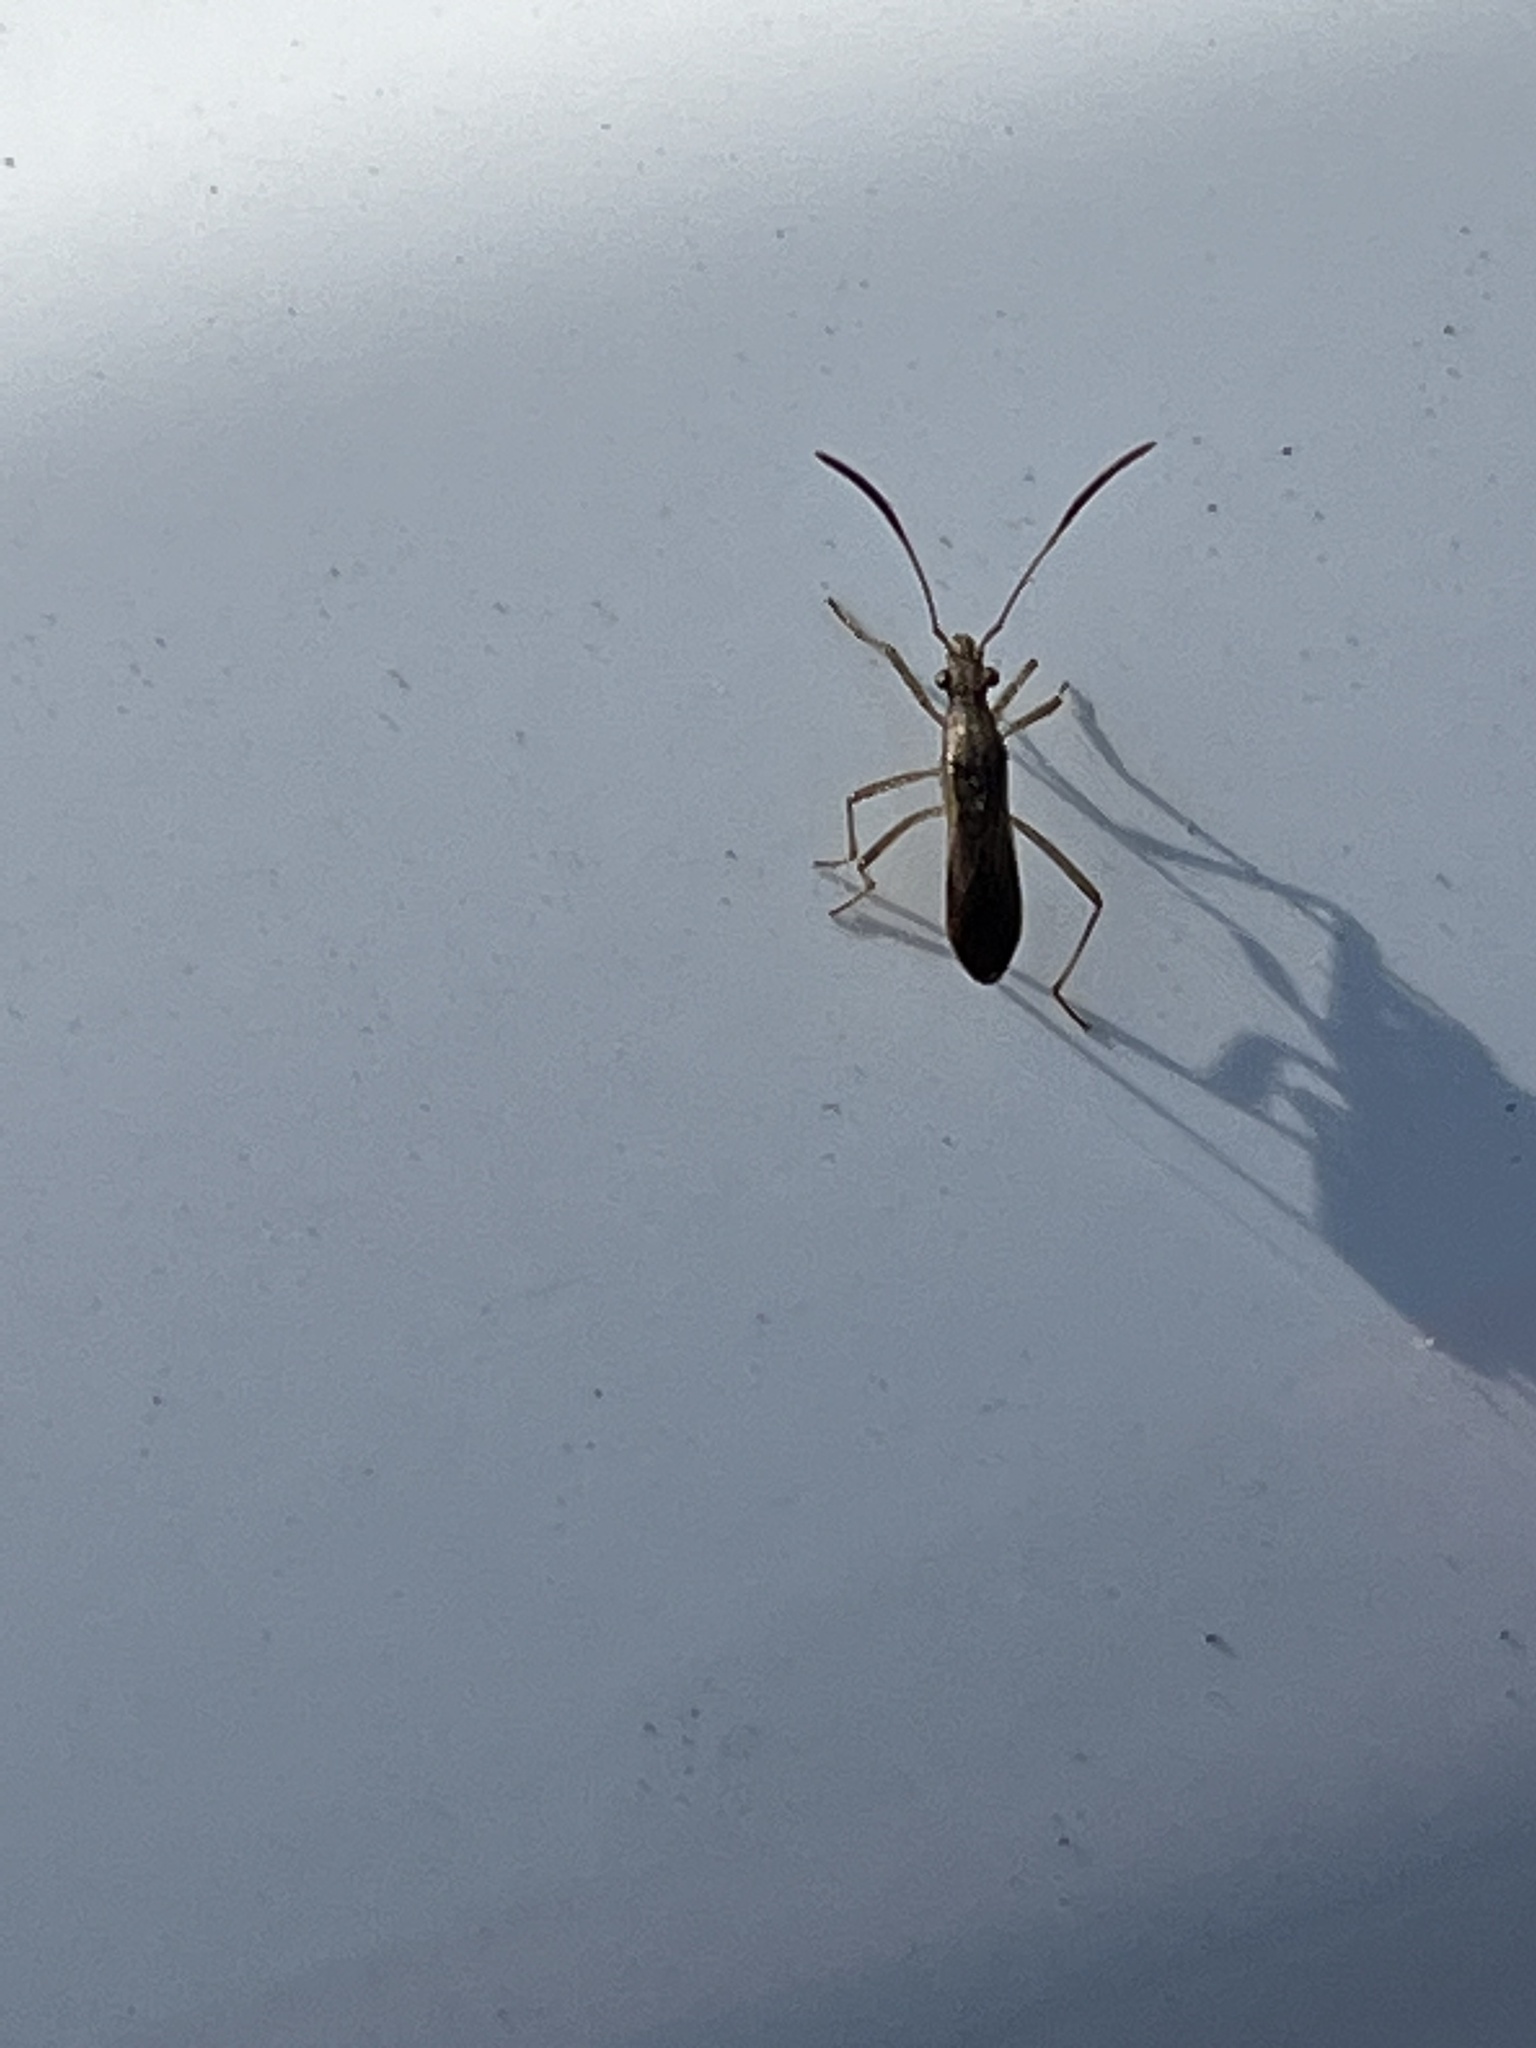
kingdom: Animalia
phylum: Arthropoda
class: Insecta
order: Hemiptera
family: Alydidae
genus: Esperanza
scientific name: Esperanza texana
